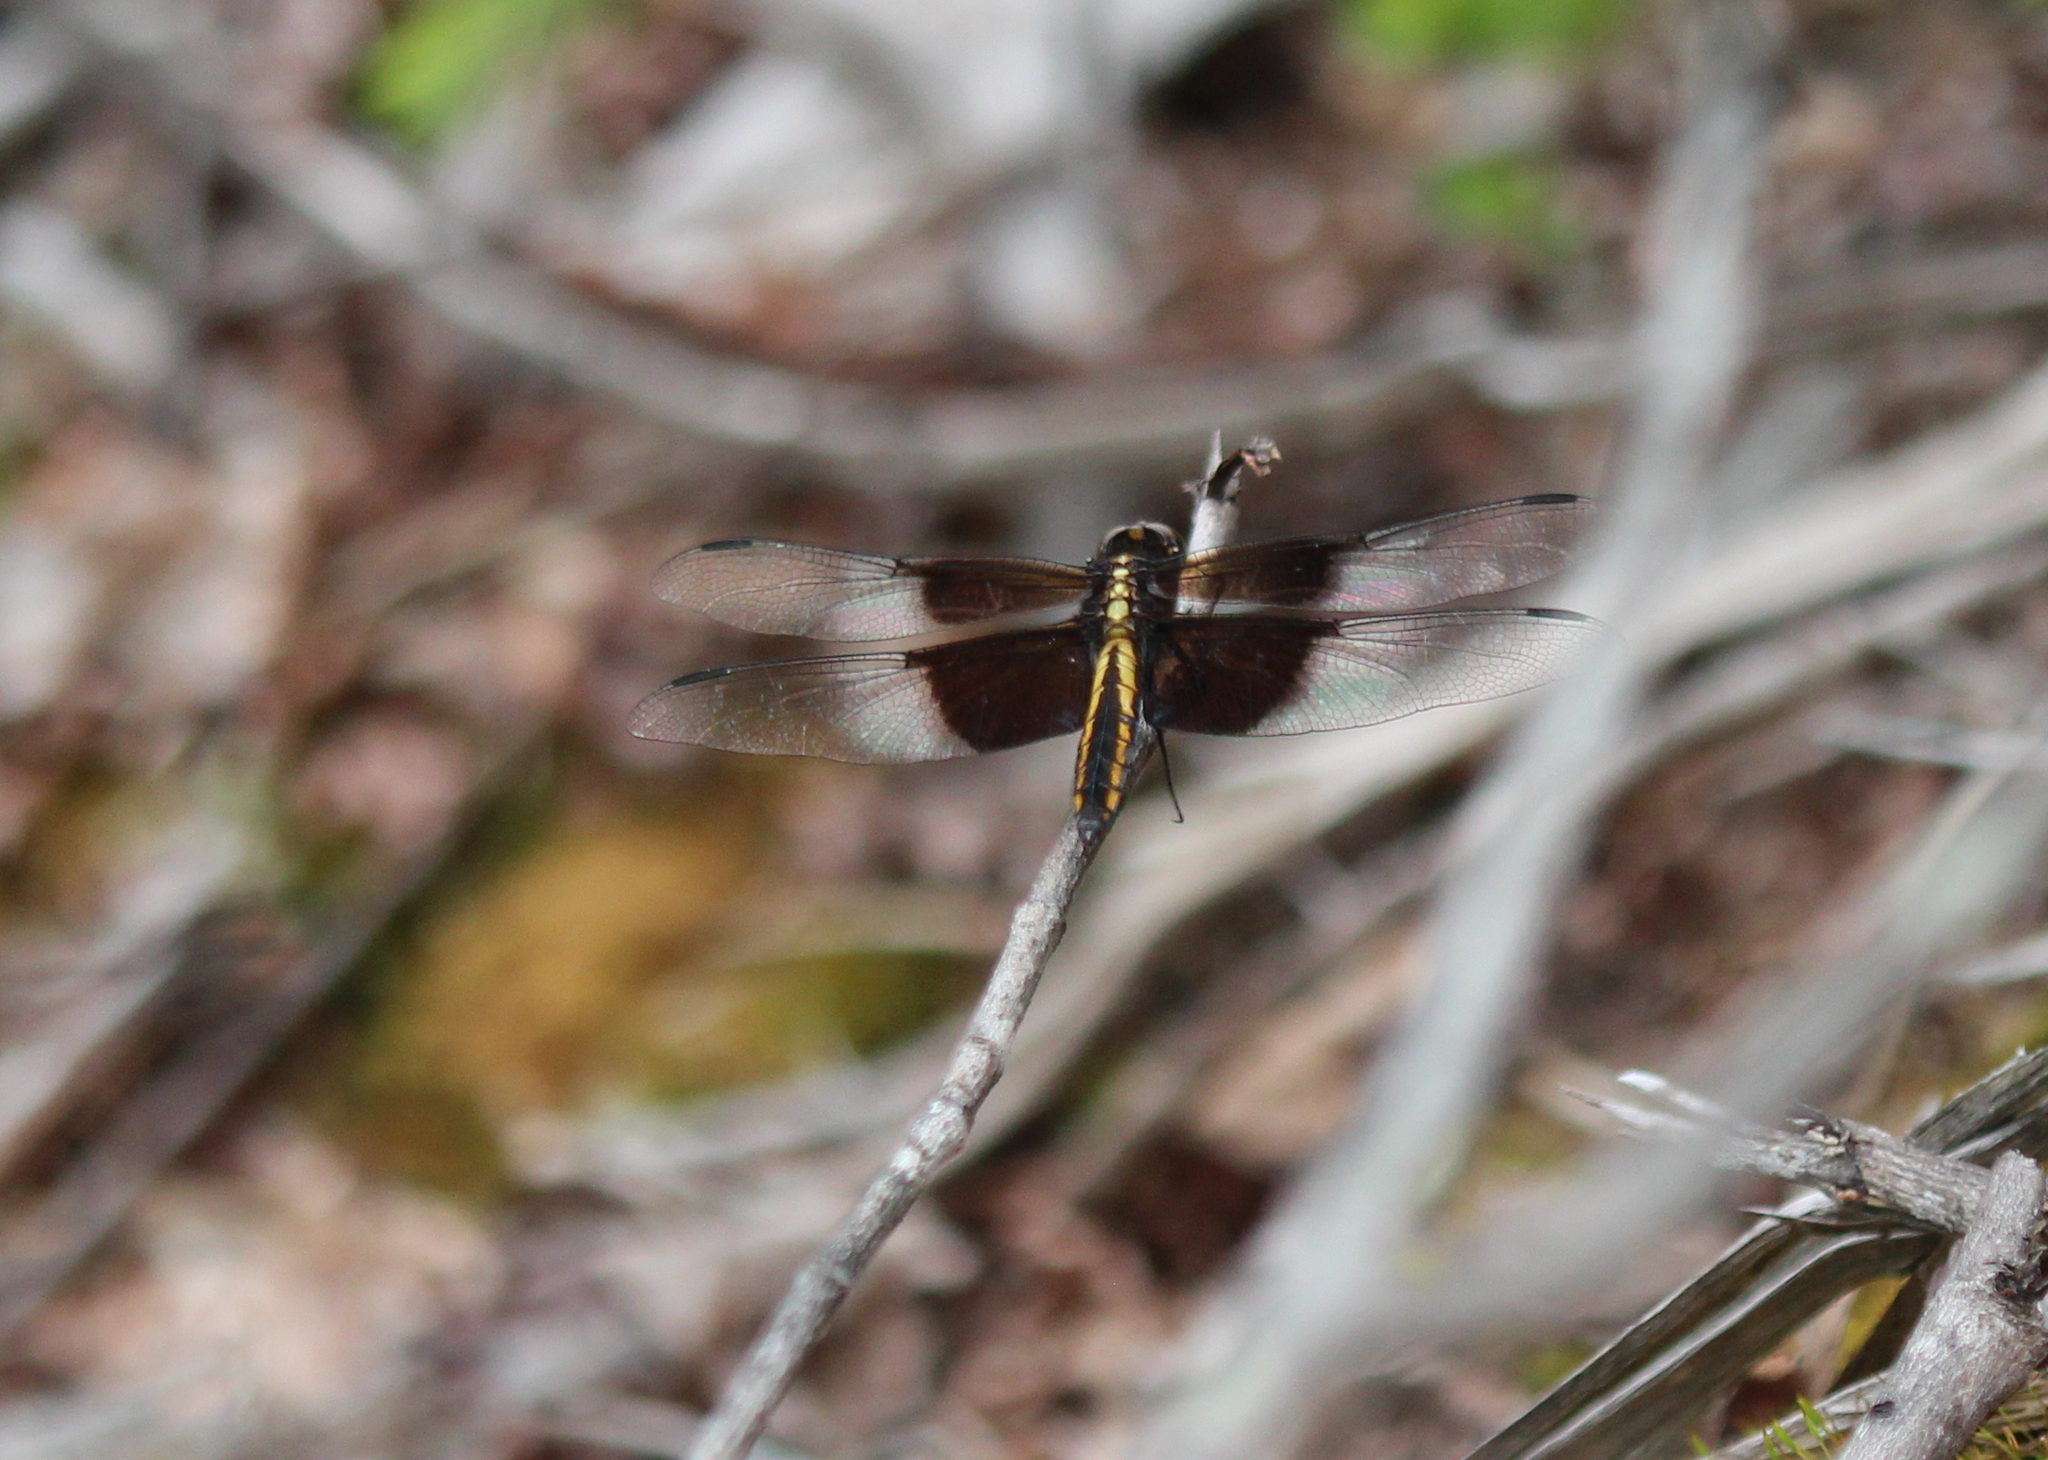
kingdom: Animalia
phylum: Arthropoda
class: Insecta
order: Odonata
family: Libellulidae
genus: Libellula
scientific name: Libellula luctuosa
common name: Widow skimmer
